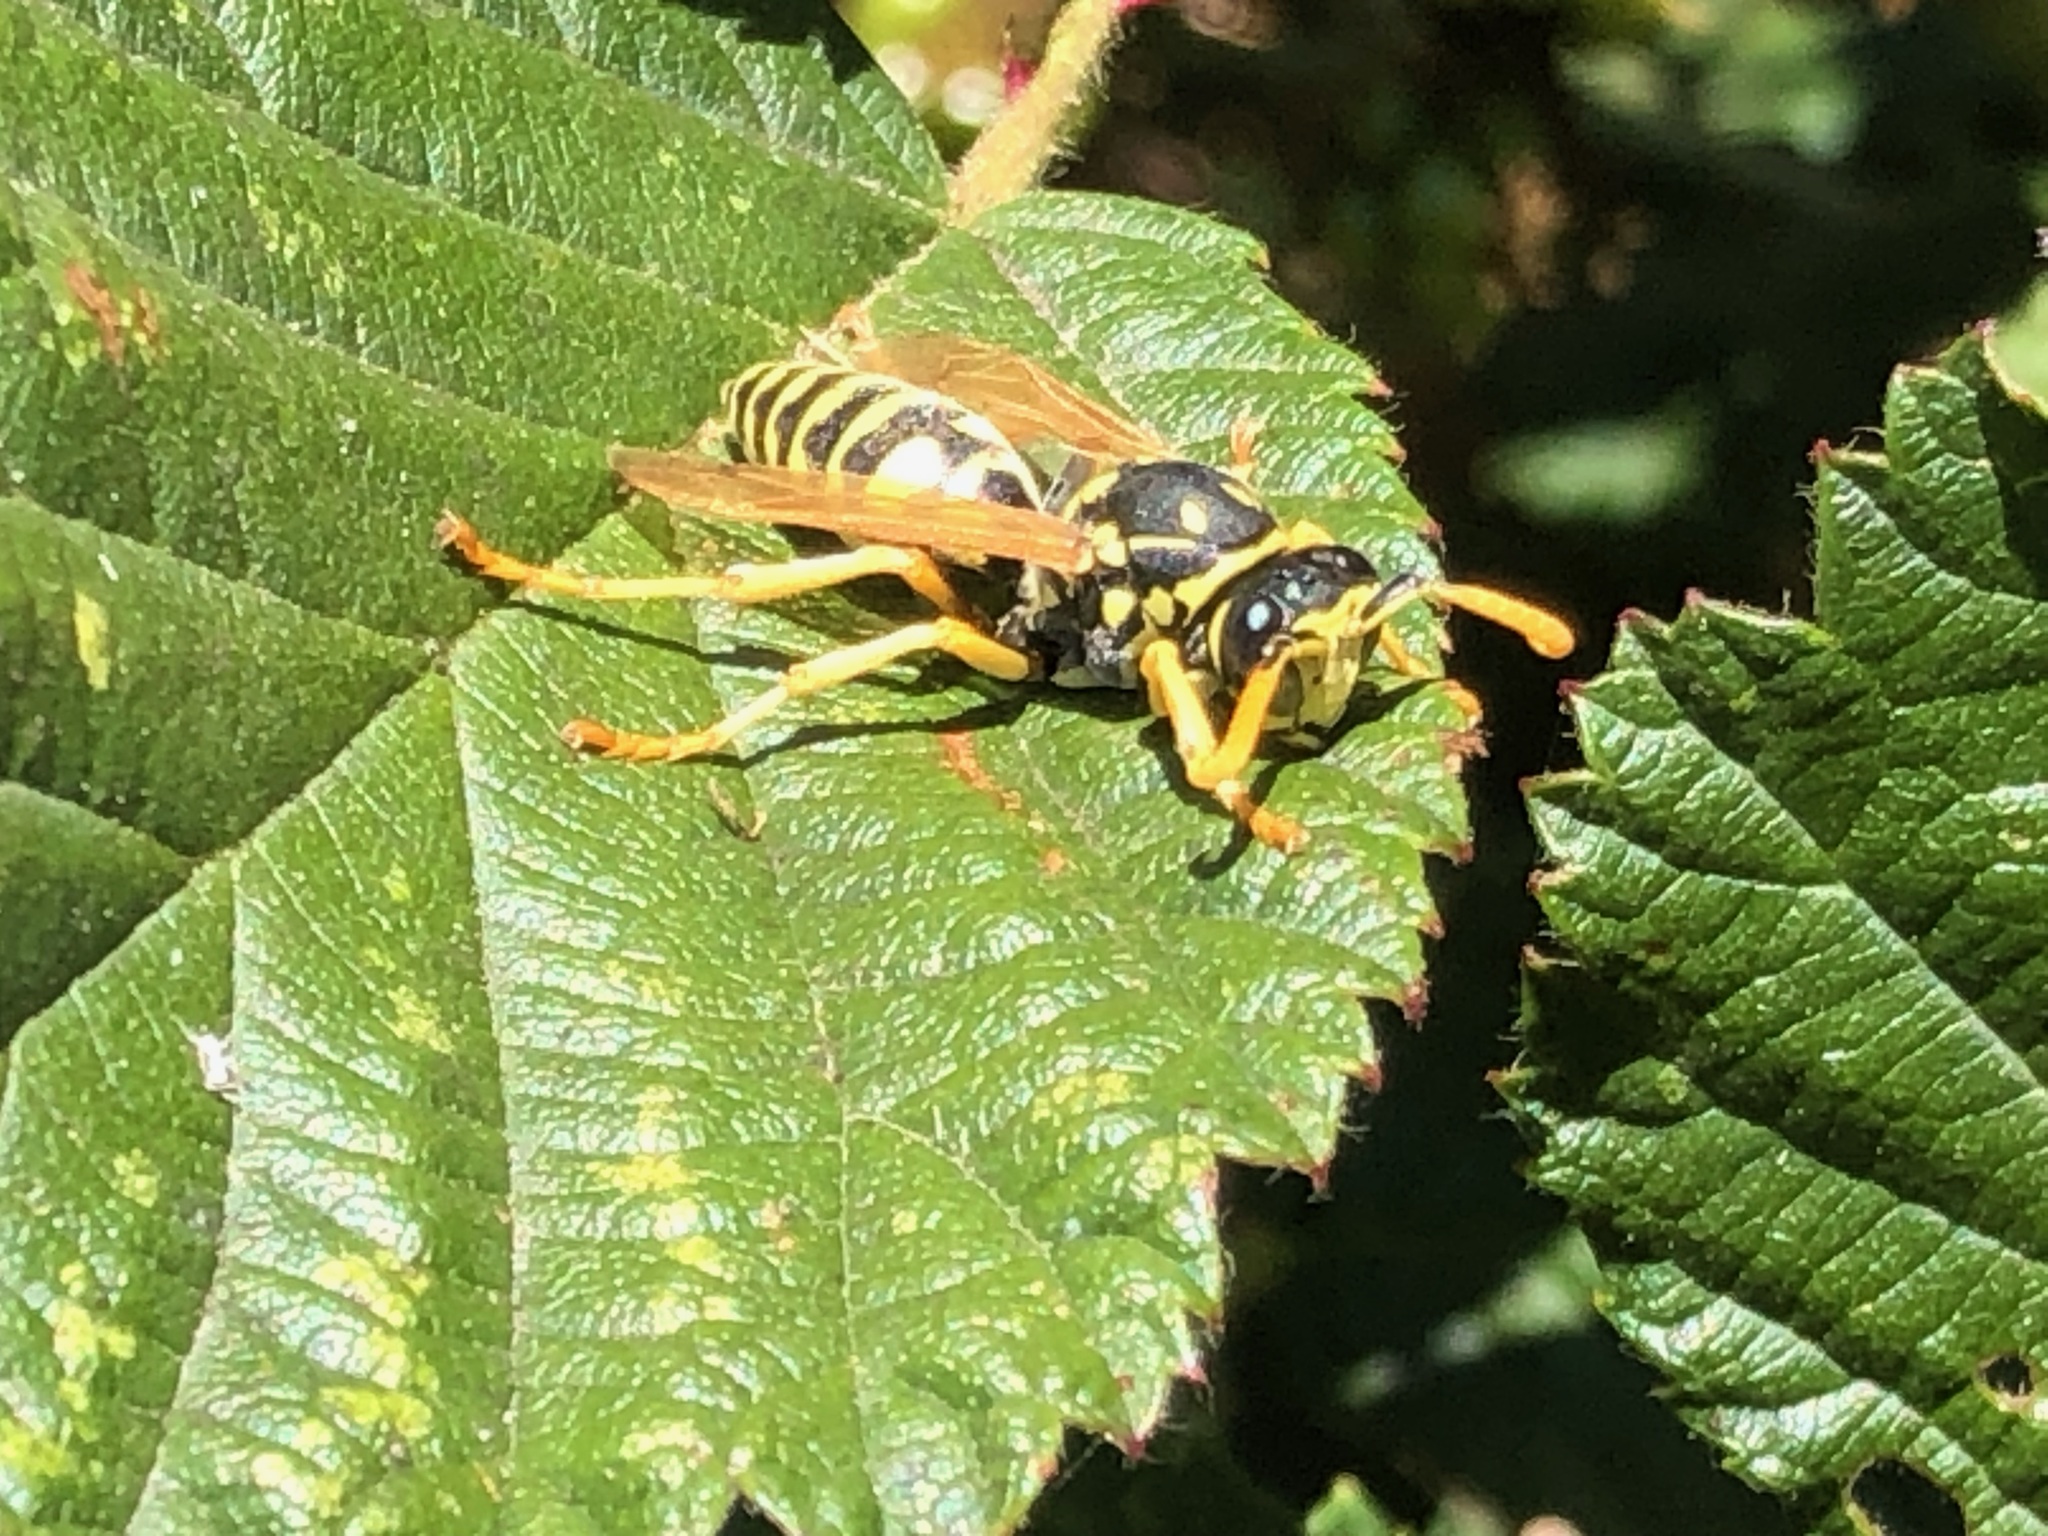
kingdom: Animalia
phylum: Arthropoda
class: Insecta
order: Hymenoptera
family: Eumenidae
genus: Polistes
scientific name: Polistes dominula
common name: Paper wasp
